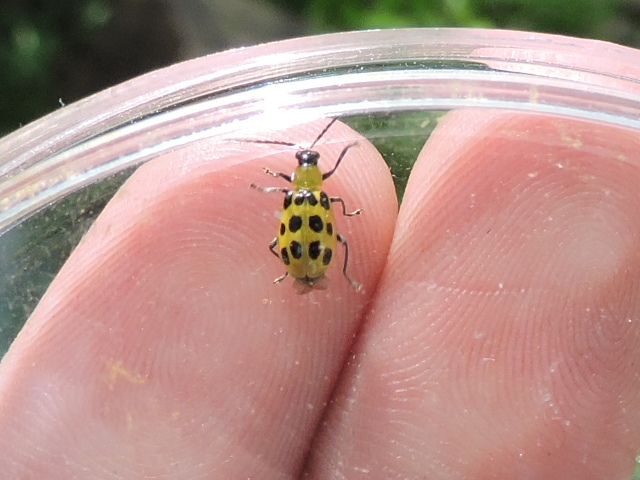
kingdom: Animalia
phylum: Arthropoda
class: Insecta
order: Coleoptera
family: Chrysomelidae
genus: Diabrotica
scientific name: Diabrotica undecimpunctata
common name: Spotted cucumber beetle
